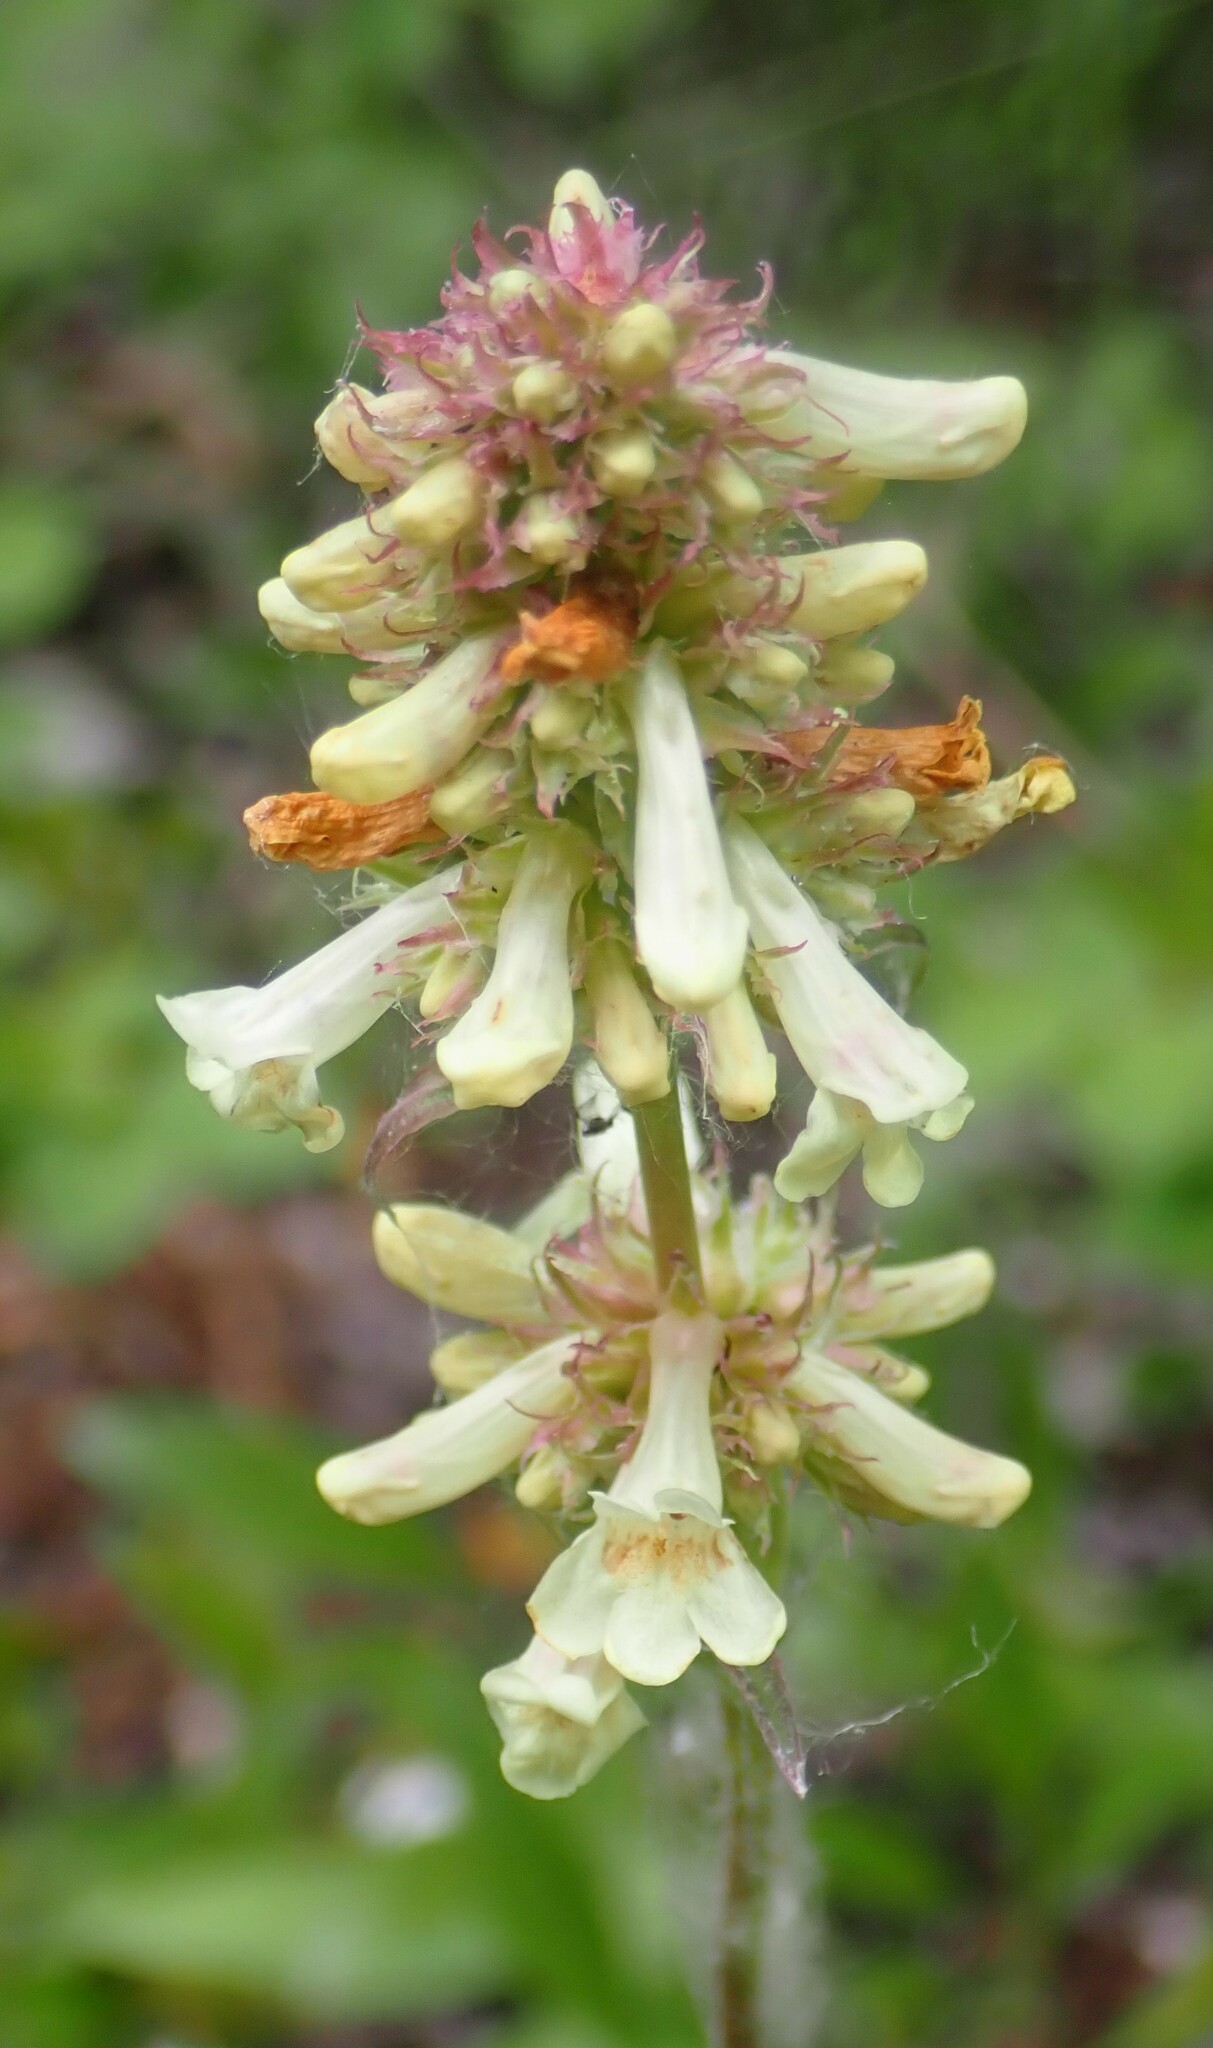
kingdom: Plantae
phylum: Tracheophyta
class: Magnoliopsida
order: Lamiales
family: Plantaginaceae
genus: Penstemon
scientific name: Penstemon confertus
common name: Lesser yellow beardtongue
